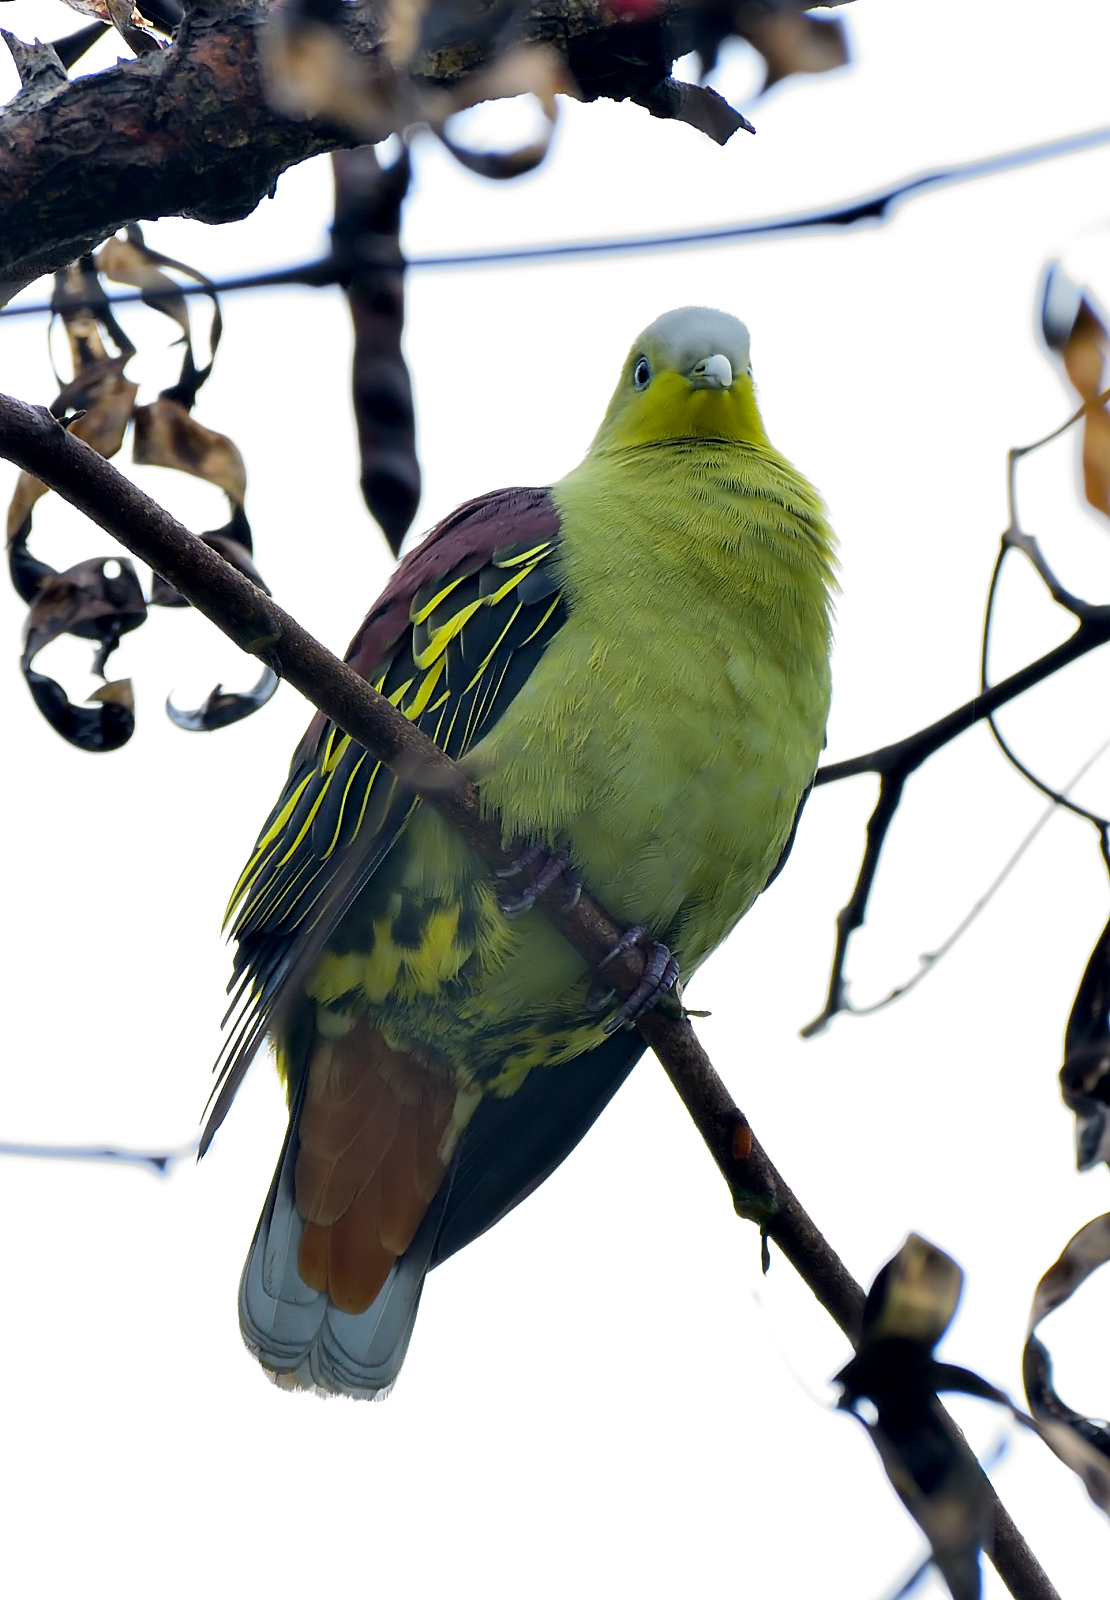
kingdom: Animalia
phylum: Chordata
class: Aves
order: Columbiformes
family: Columbidae
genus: Treron
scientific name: Treron affinis
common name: Grey-fronted green pigeon
